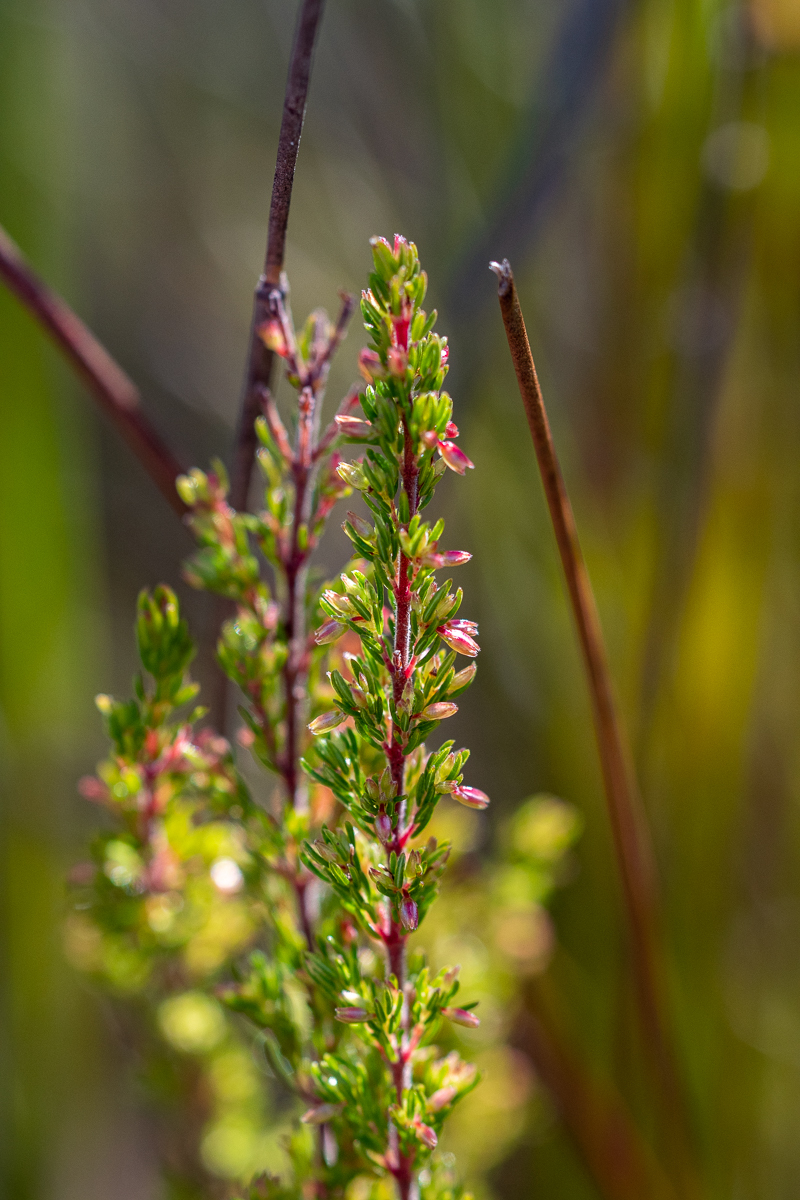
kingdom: Plantae
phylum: Tracheophyta
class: Magnoliopsida
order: Ericales
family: Ericaceae
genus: Erica
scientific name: Erica intervallaris
